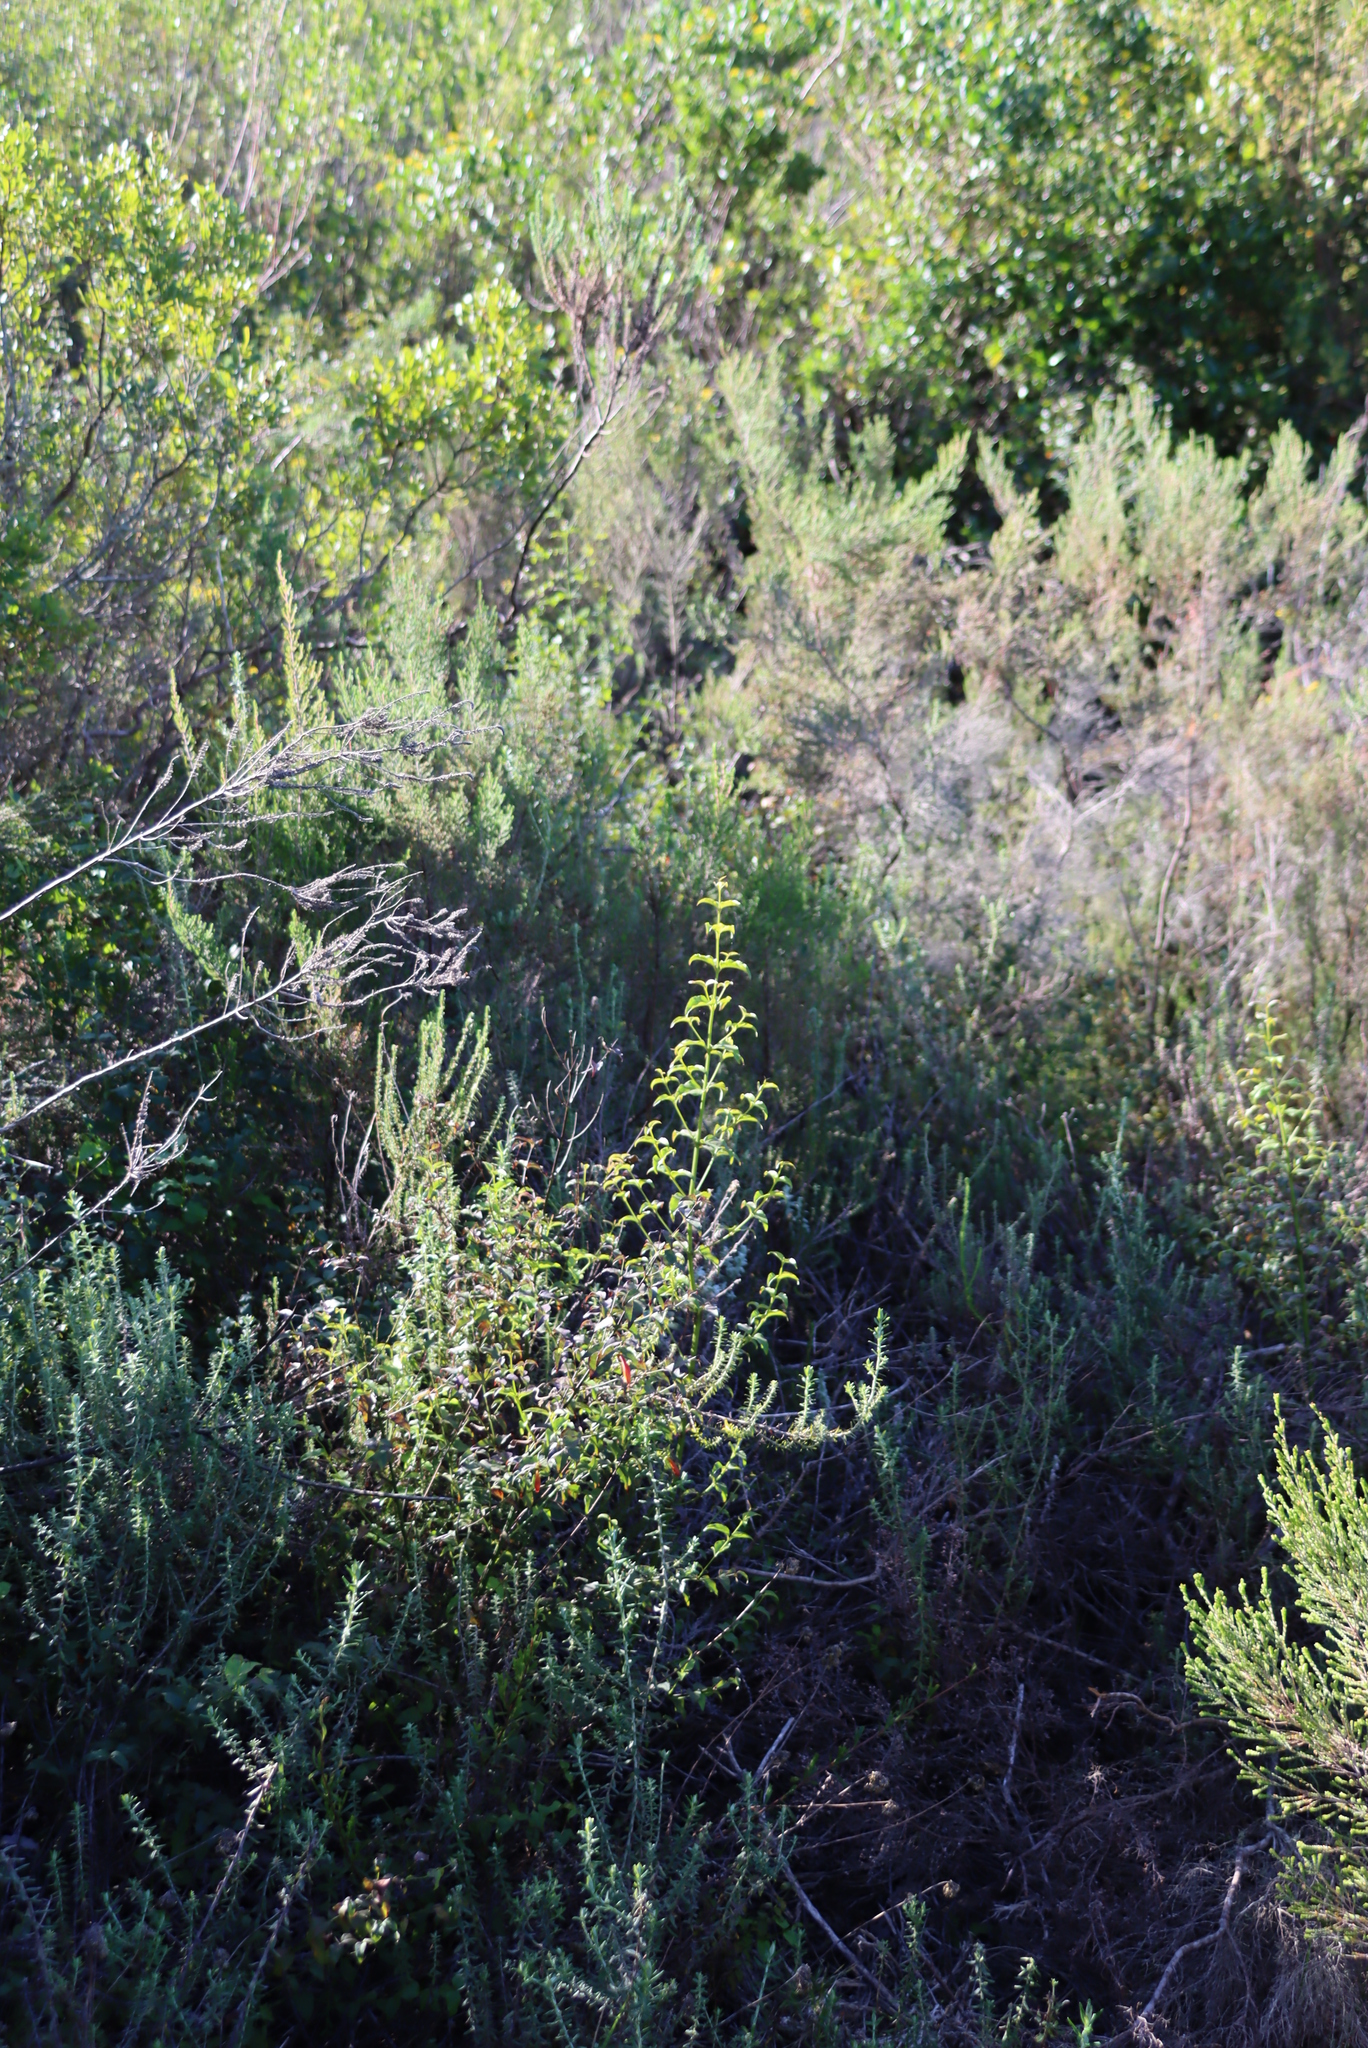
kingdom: Plantae
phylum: Tracheophyta
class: Magnoliopsida
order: Lamiales
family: Stilbaceae
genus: Halleria
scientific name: Halleria lucida
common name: Tree fuschia
